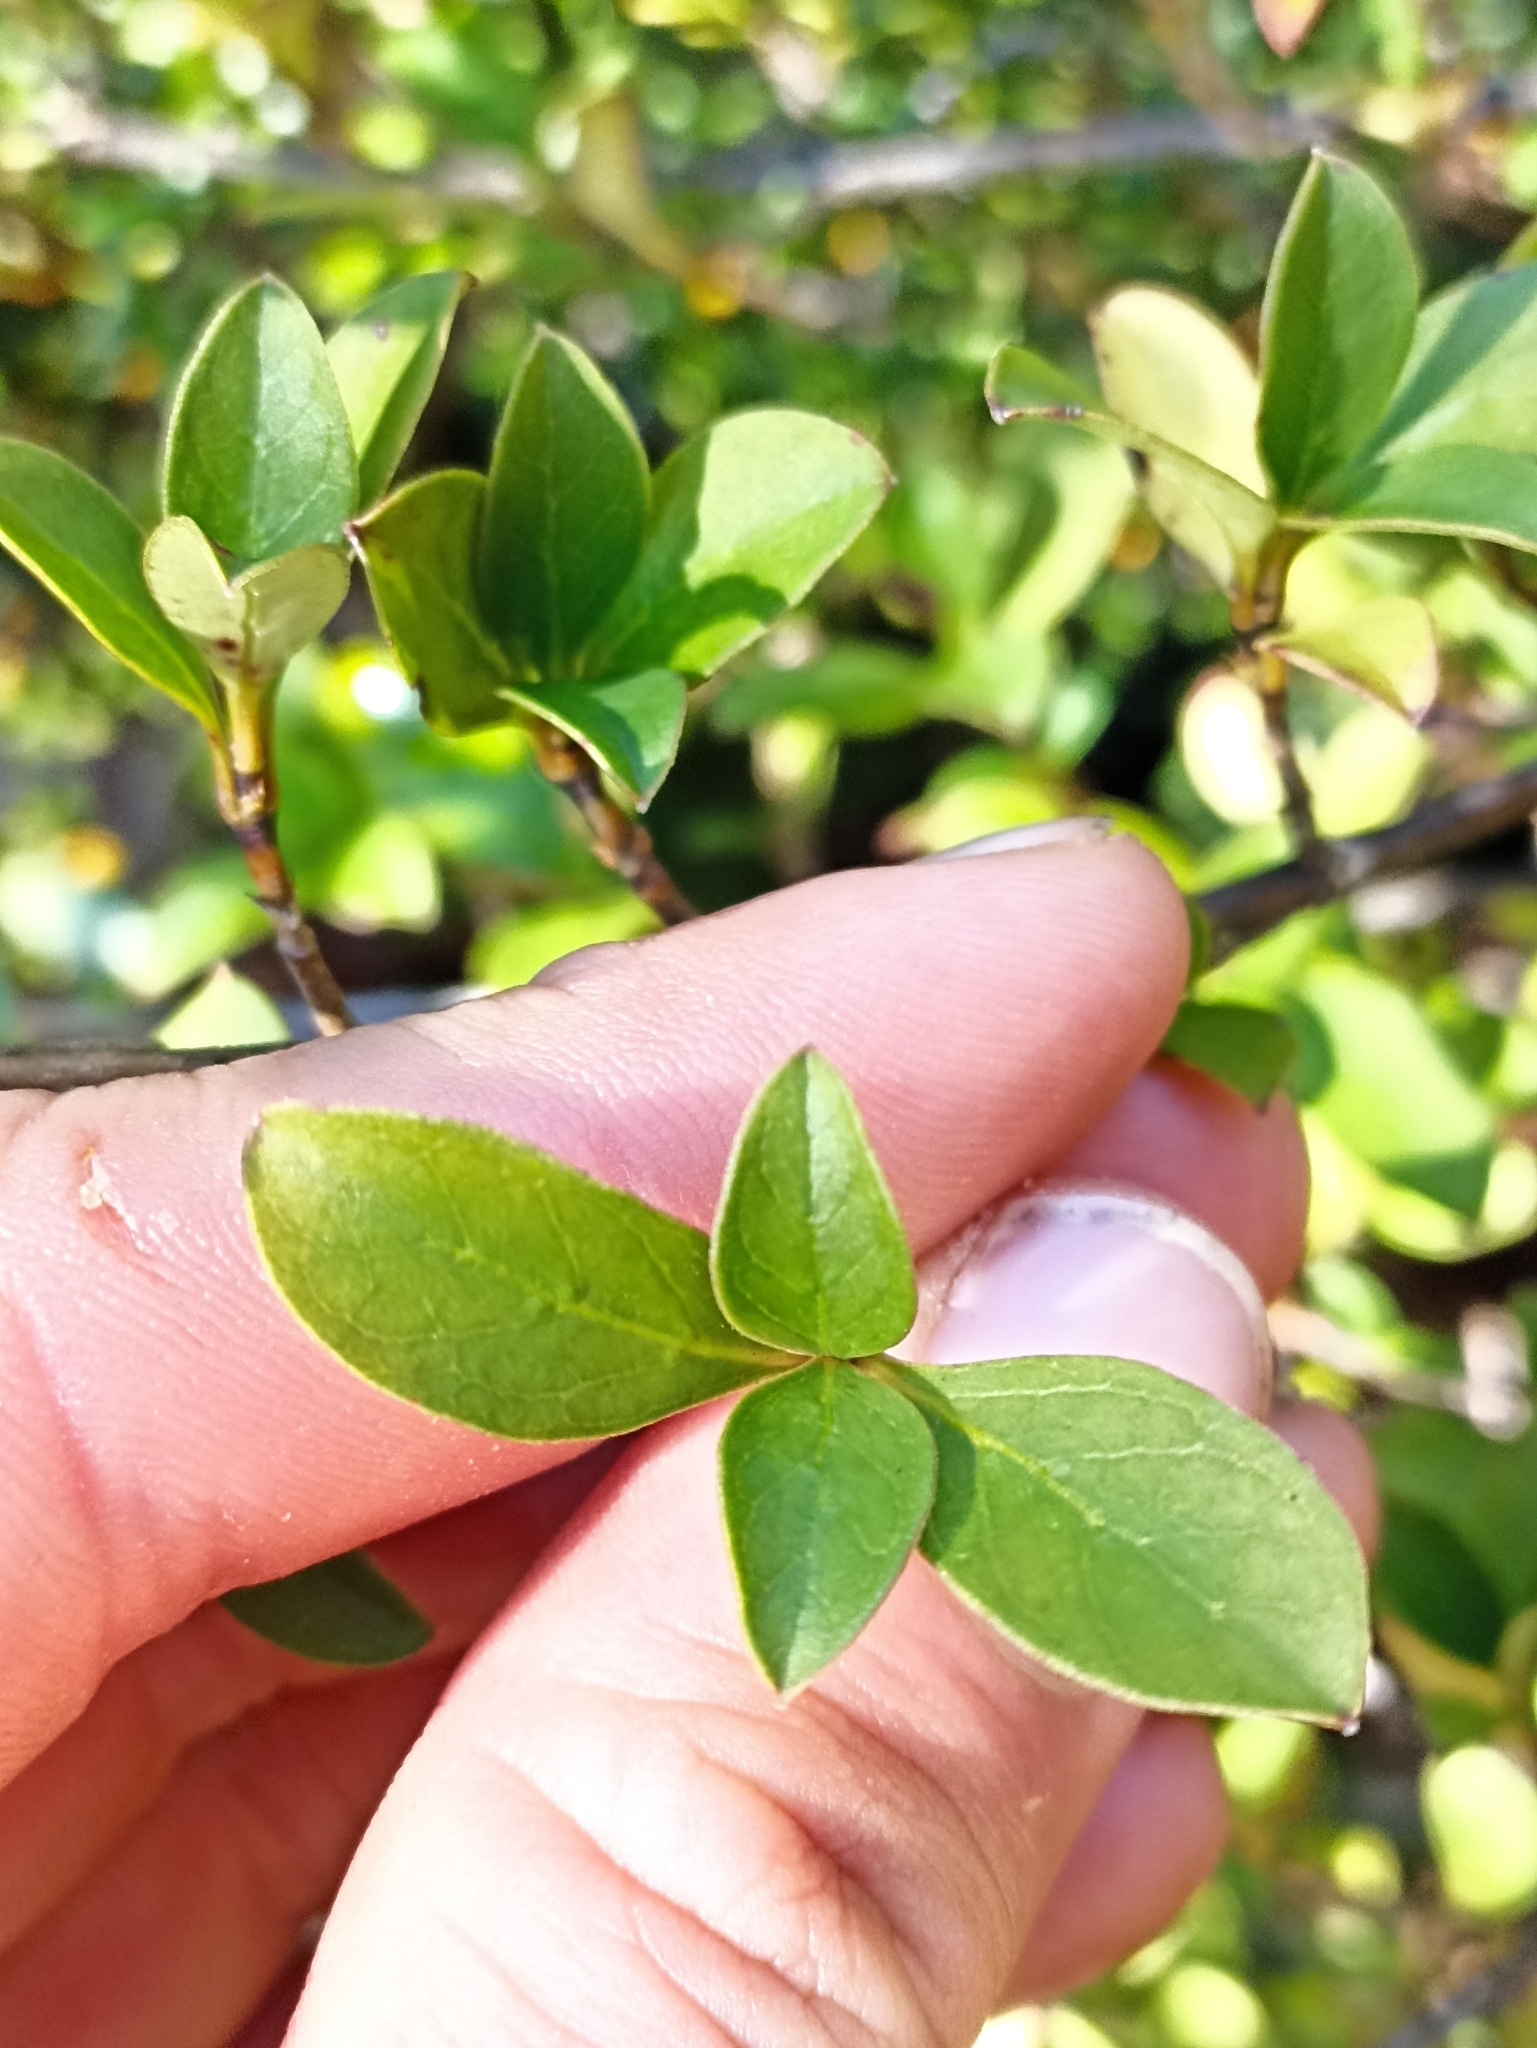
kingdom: Plantae
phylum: Tracheophyta
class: Magnoliopsida
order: Gentianales
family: Rubiaceae
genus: Coprosma
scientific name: Coprosma serrulata
